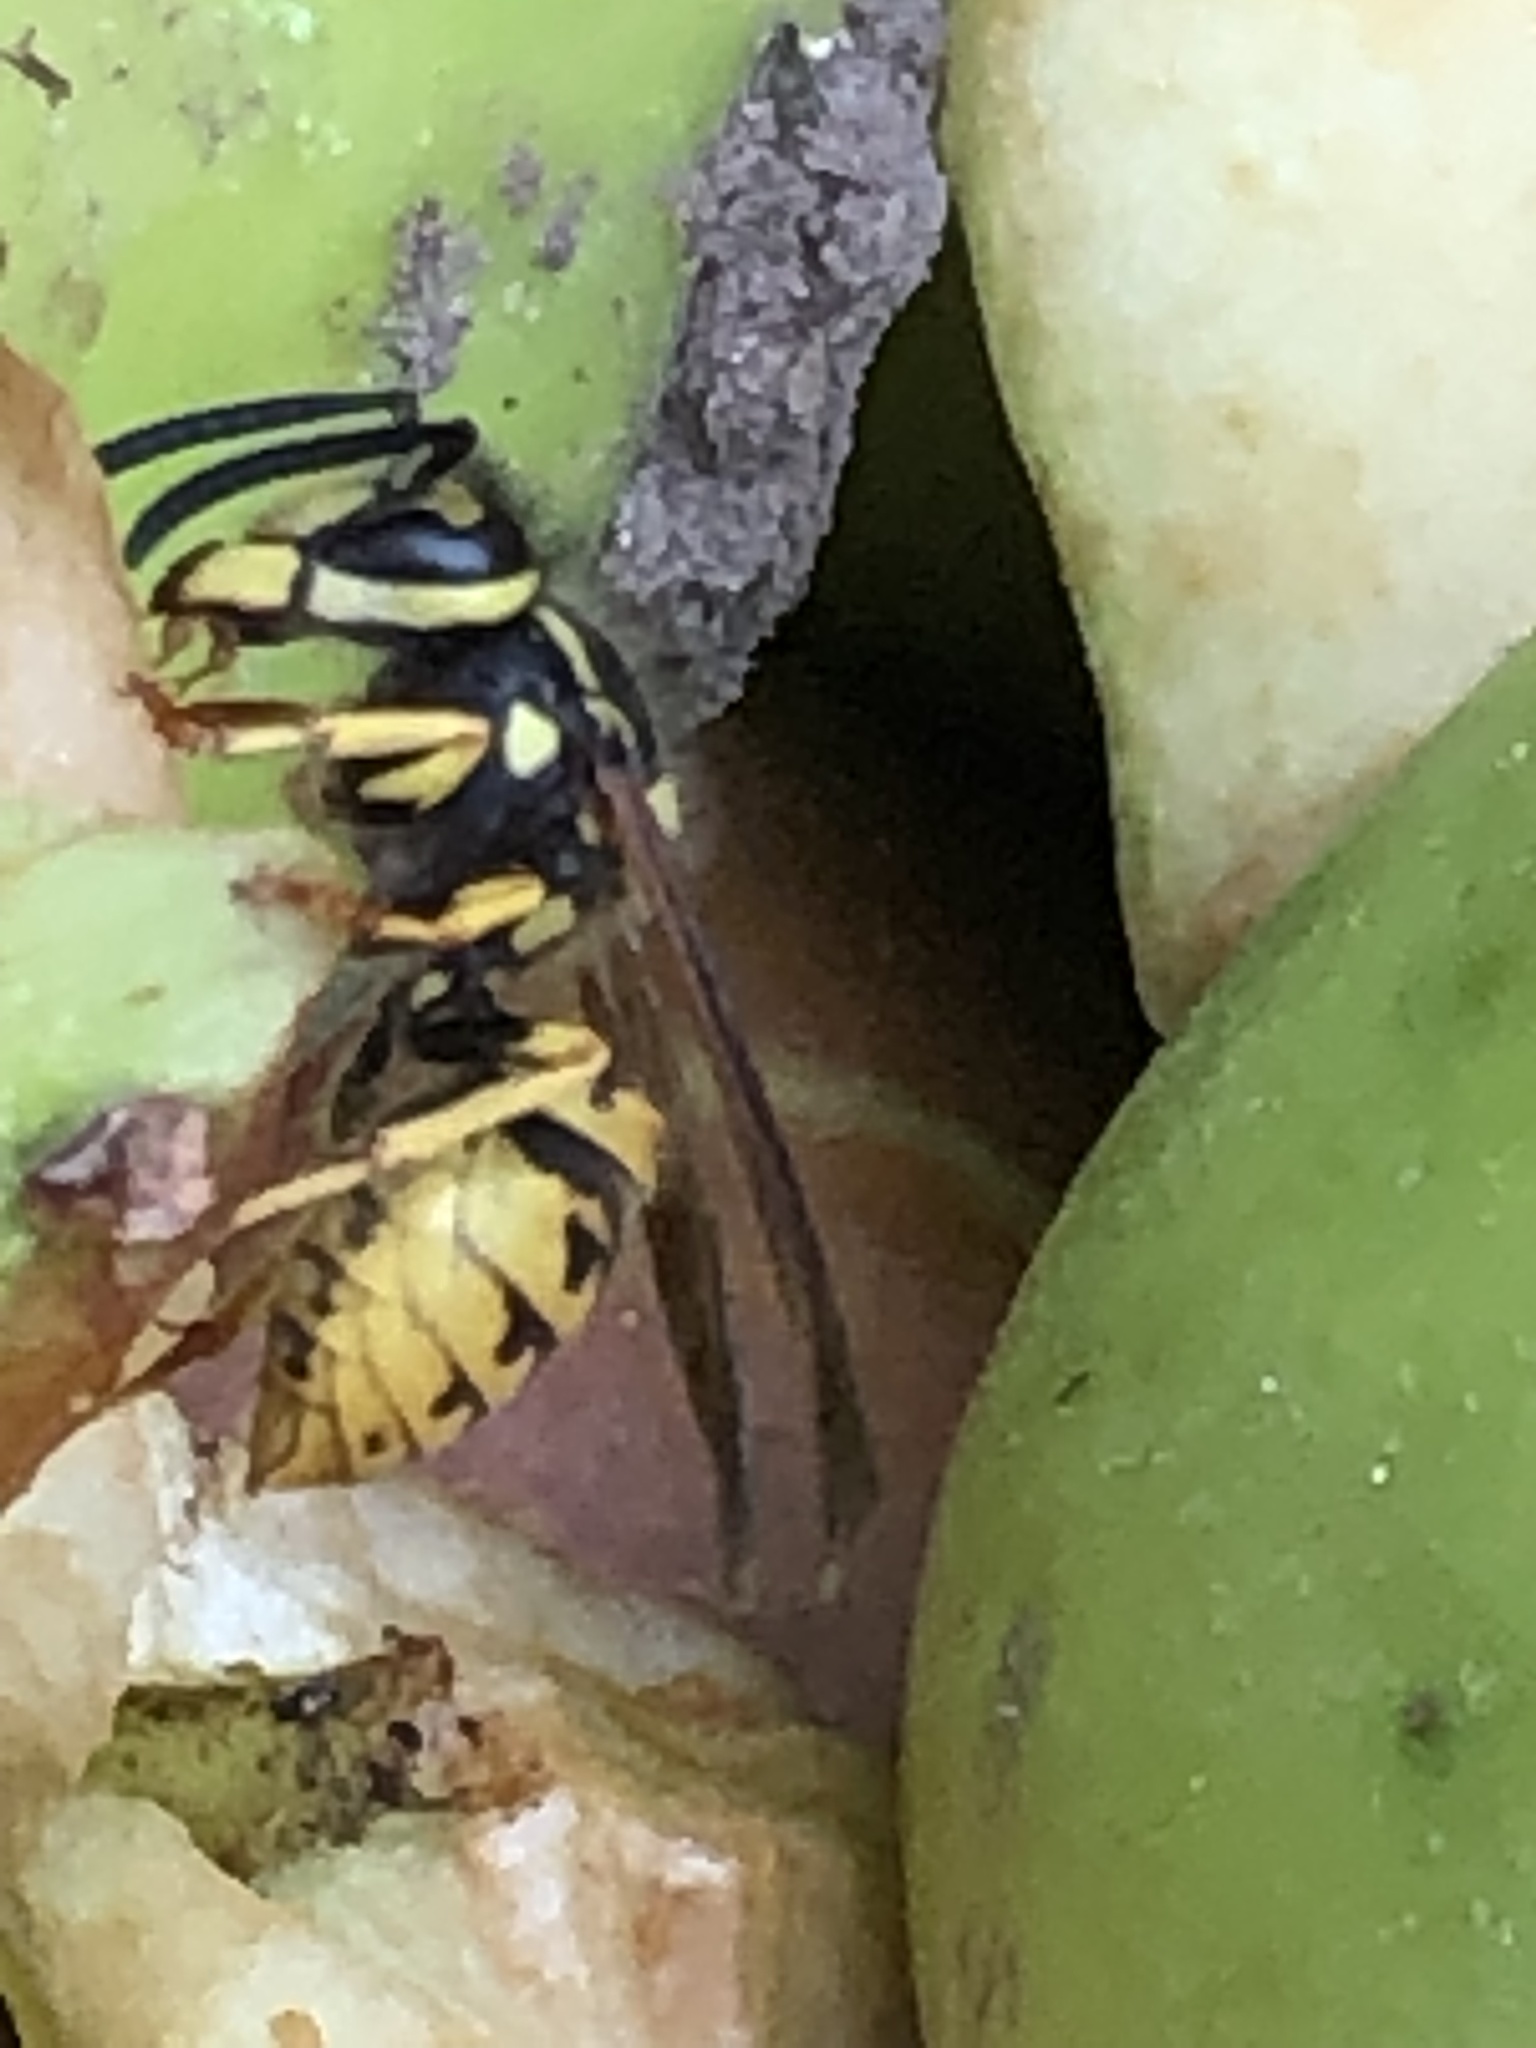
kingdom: Animalia
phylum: Arthropoda
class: Insecta
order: Hymenoptera
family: Vespidae
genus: Vespula
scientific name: Vespula germanica
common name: German wasp
